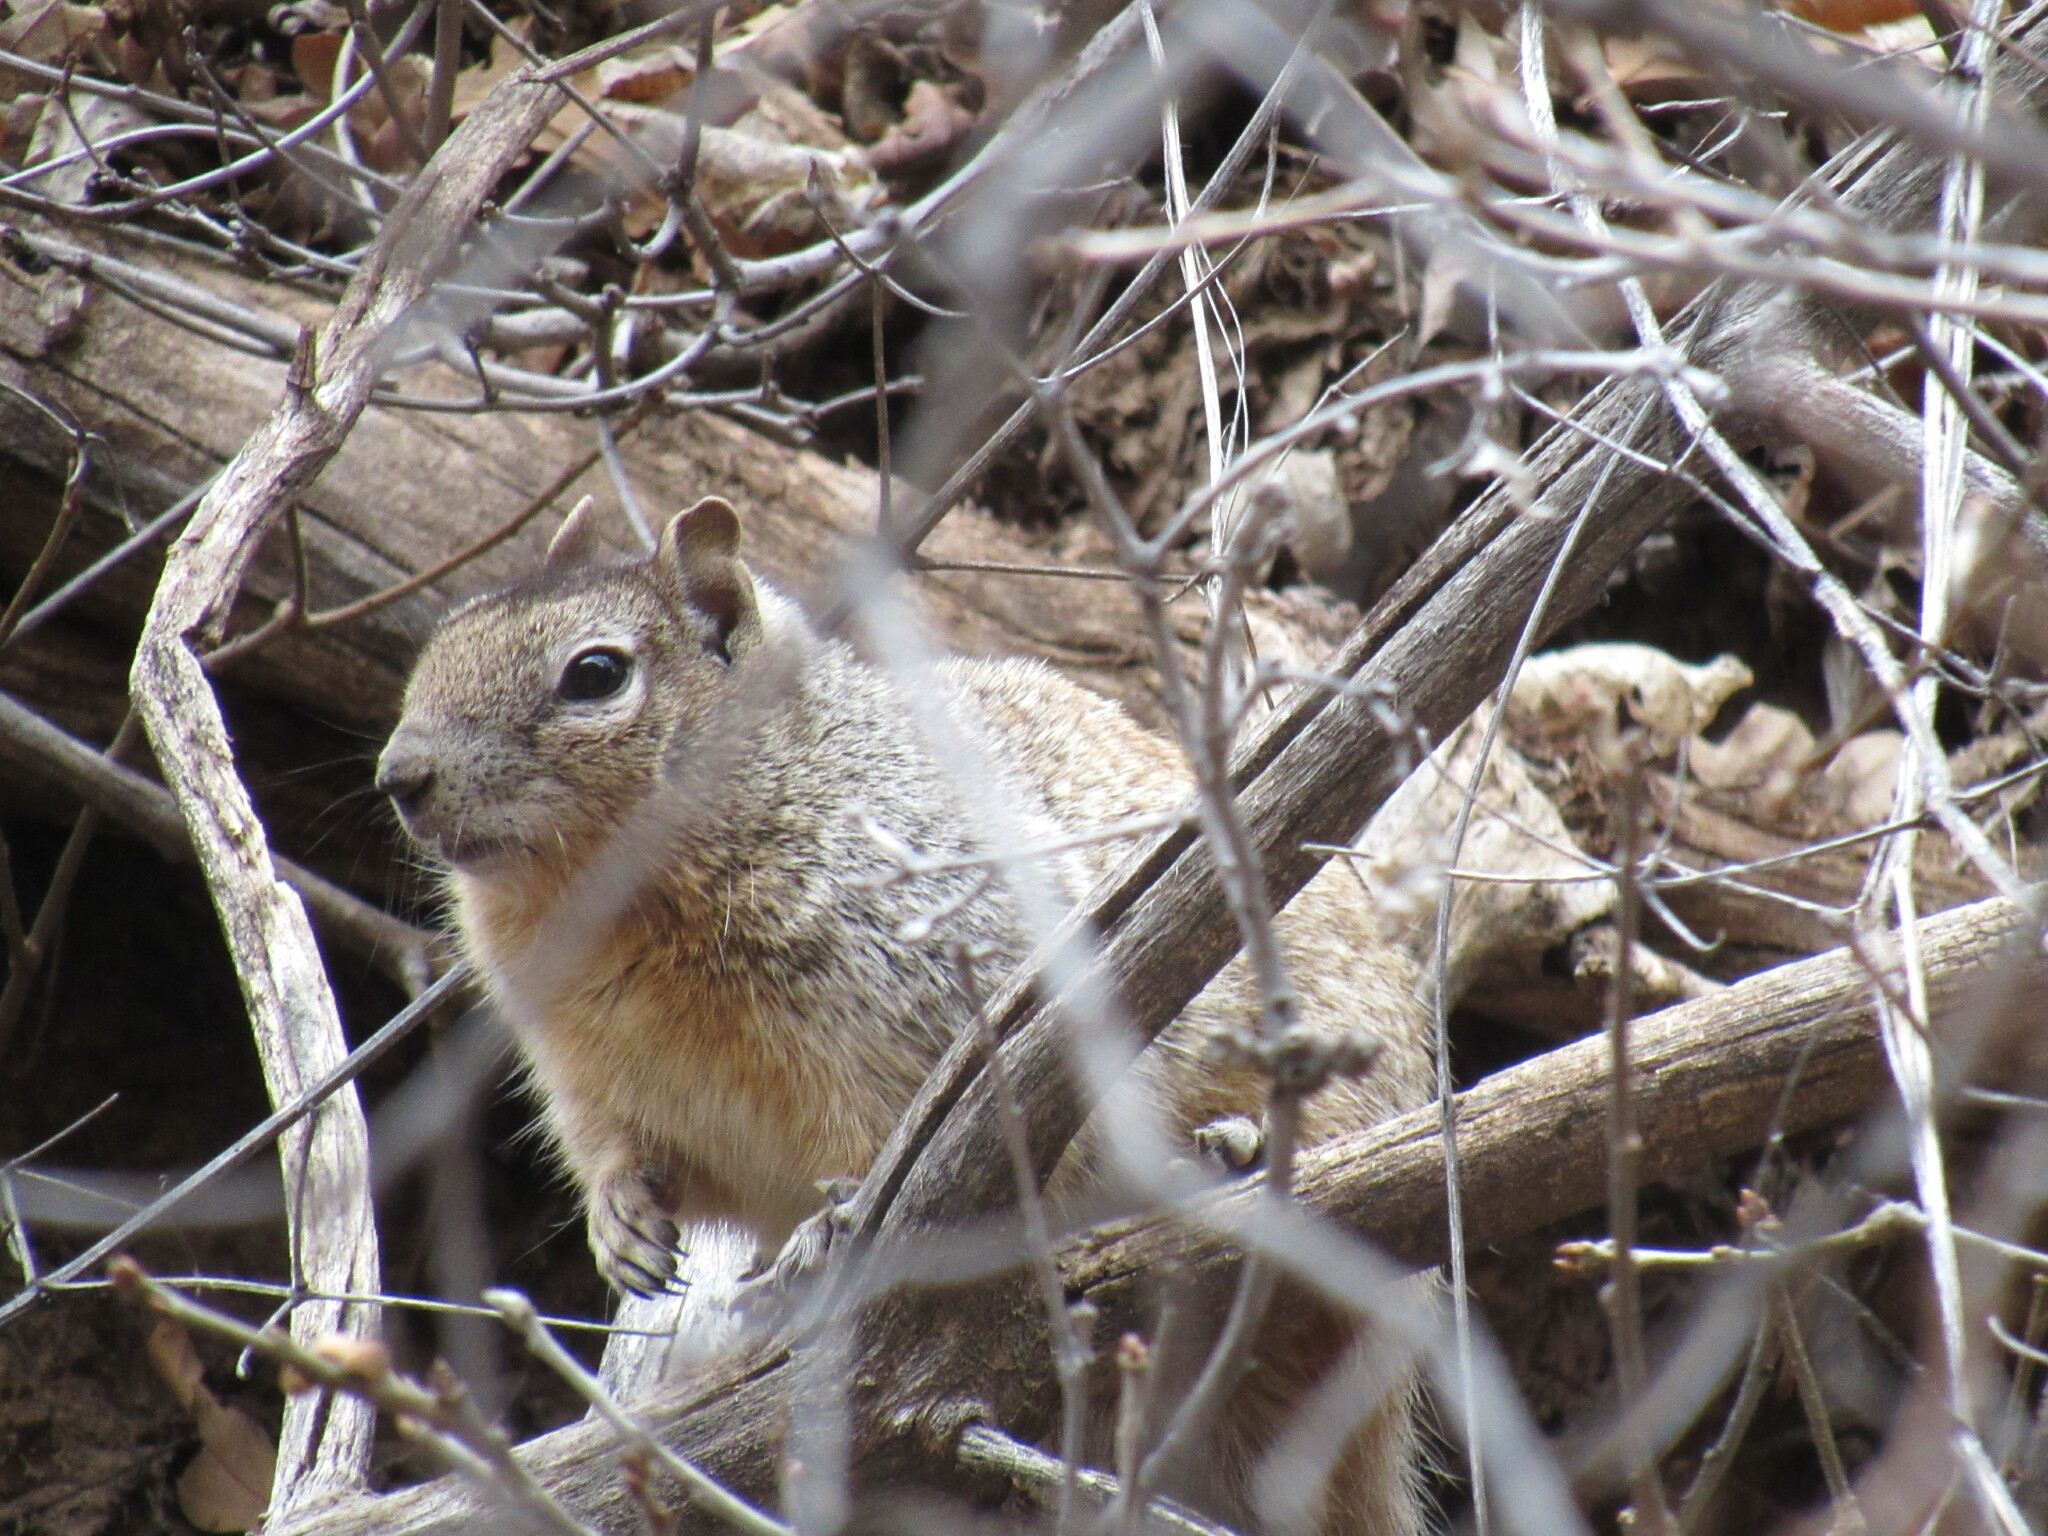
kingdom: Animalia
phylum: Chordata
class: Mammalia
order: Rodentia
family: Sciuridae
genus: Otospermophilus
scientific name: Otospermophilus variegatus
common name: Rock squirrel
